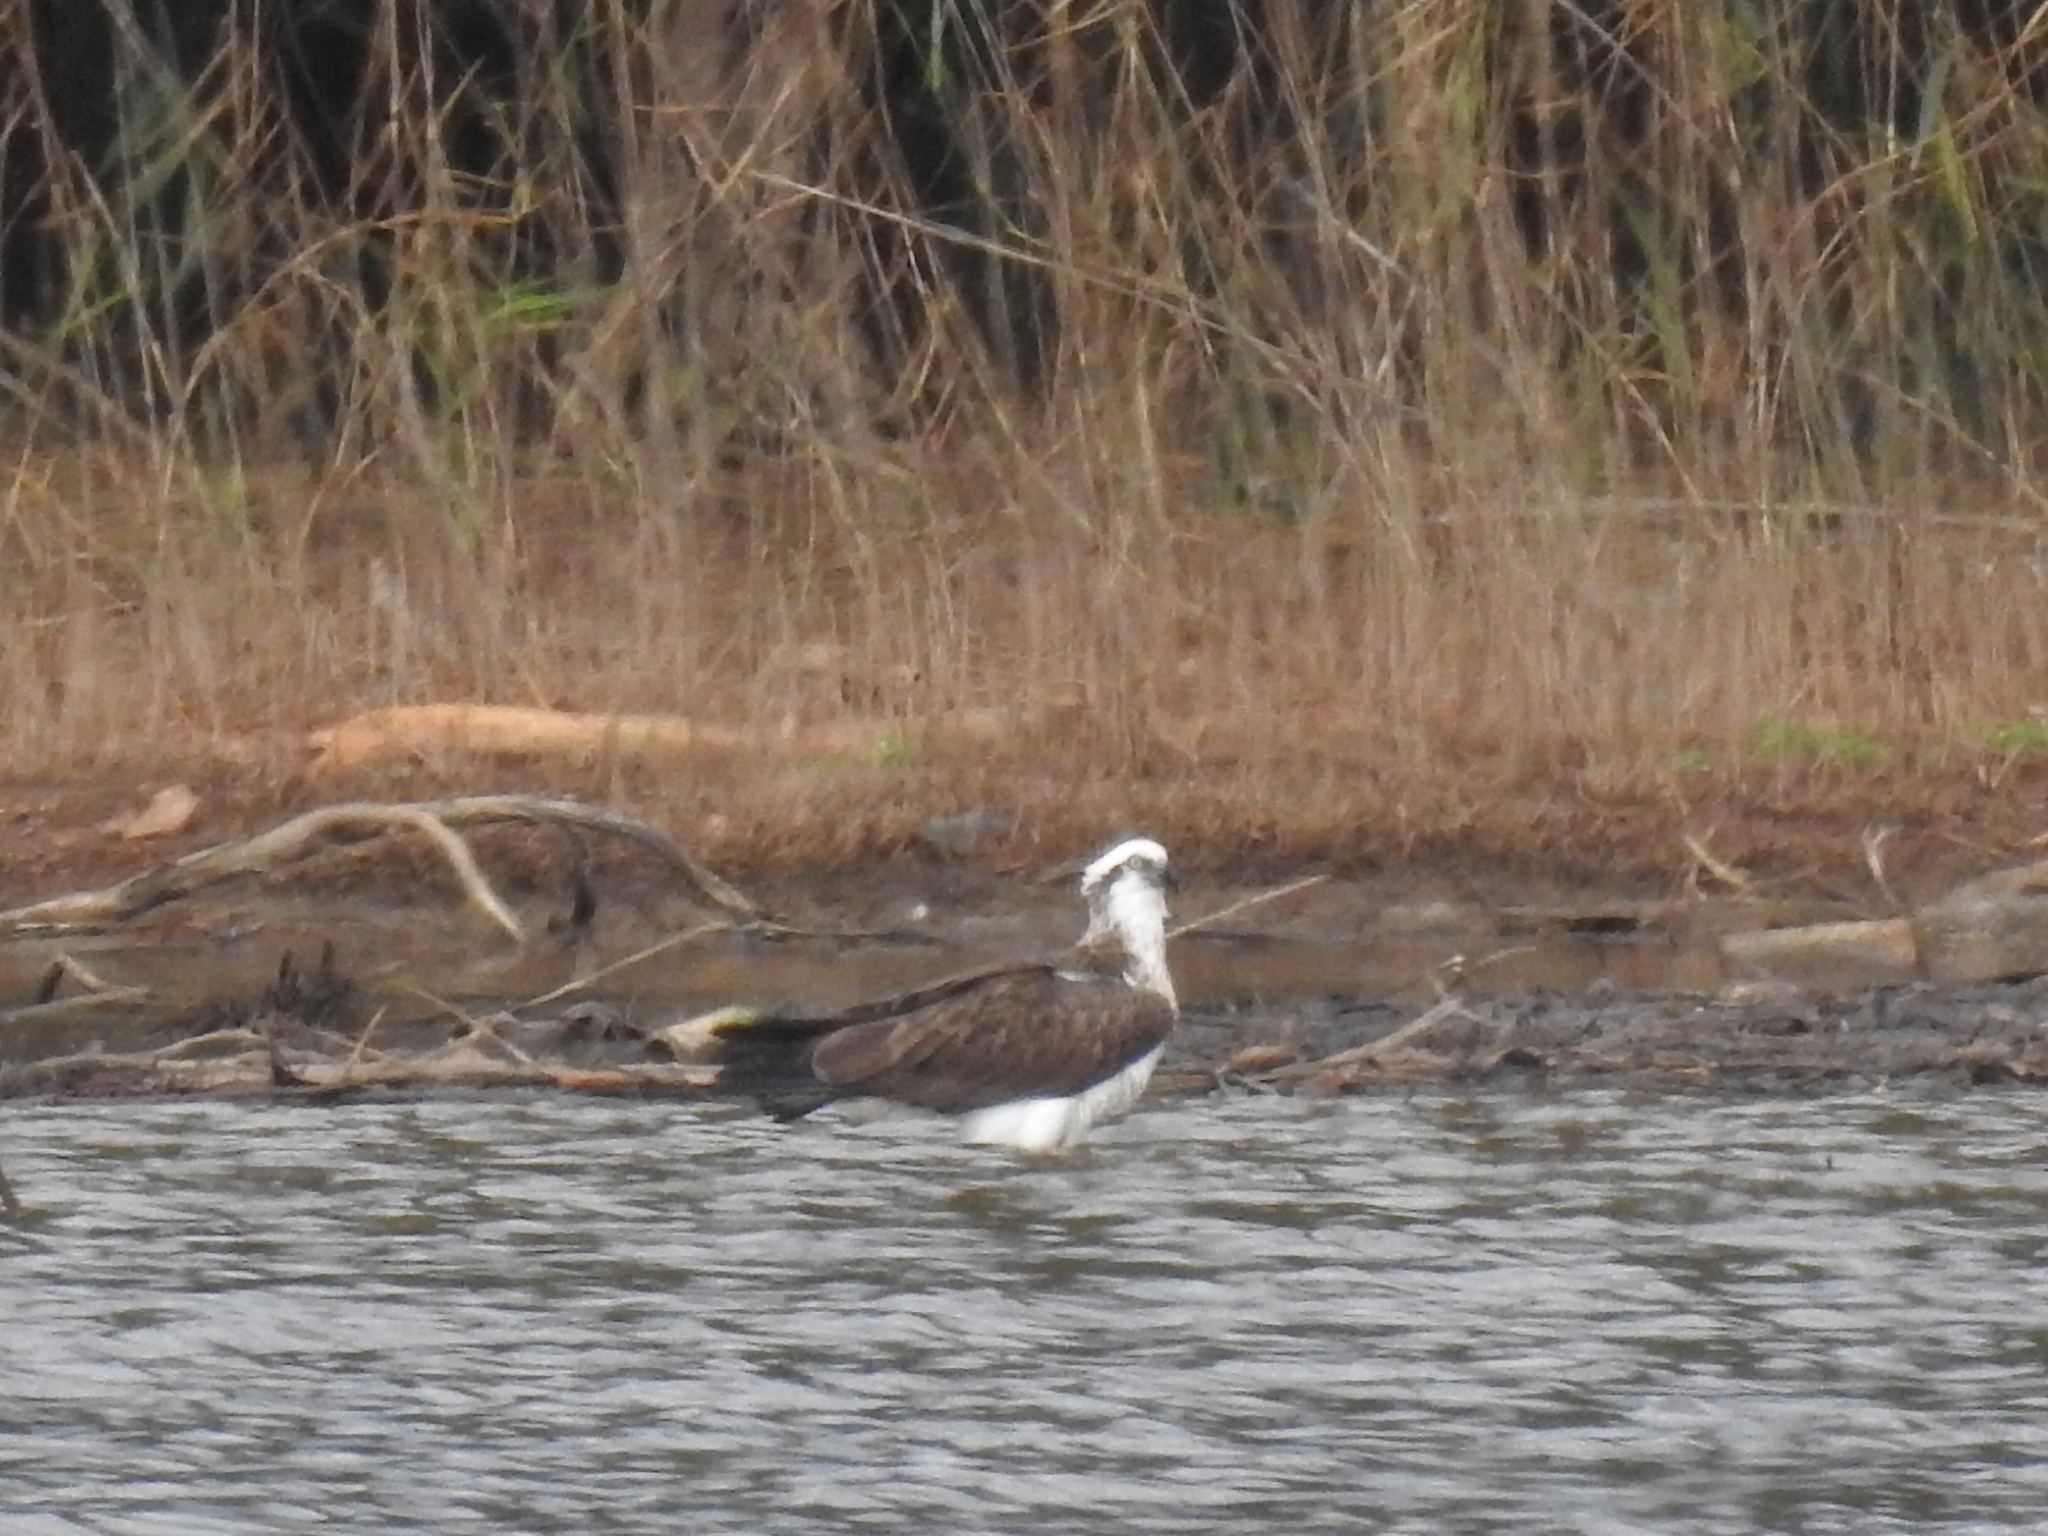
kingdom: Animalia
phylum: Chordata
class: Aves
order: Accipitriformes
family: Pandionidae
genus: Pandion
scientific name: Pandion cristatus
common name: Eastern osprey
